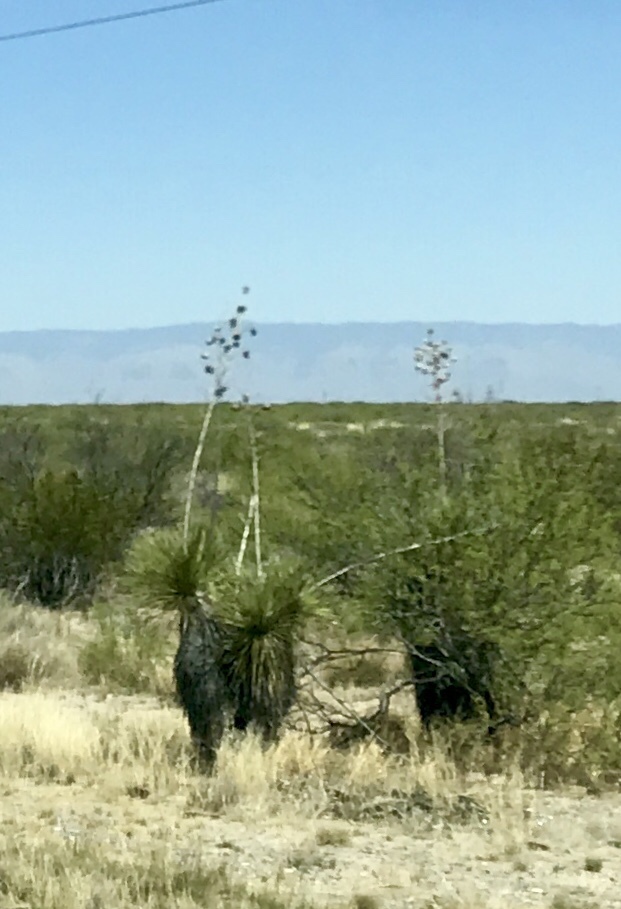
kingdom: Plantae
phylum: Tracheophyta
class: Liliopsida
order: Asparagales
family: Asparagaceae
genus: Yucca
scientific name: Yucca elata
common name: Palmella
